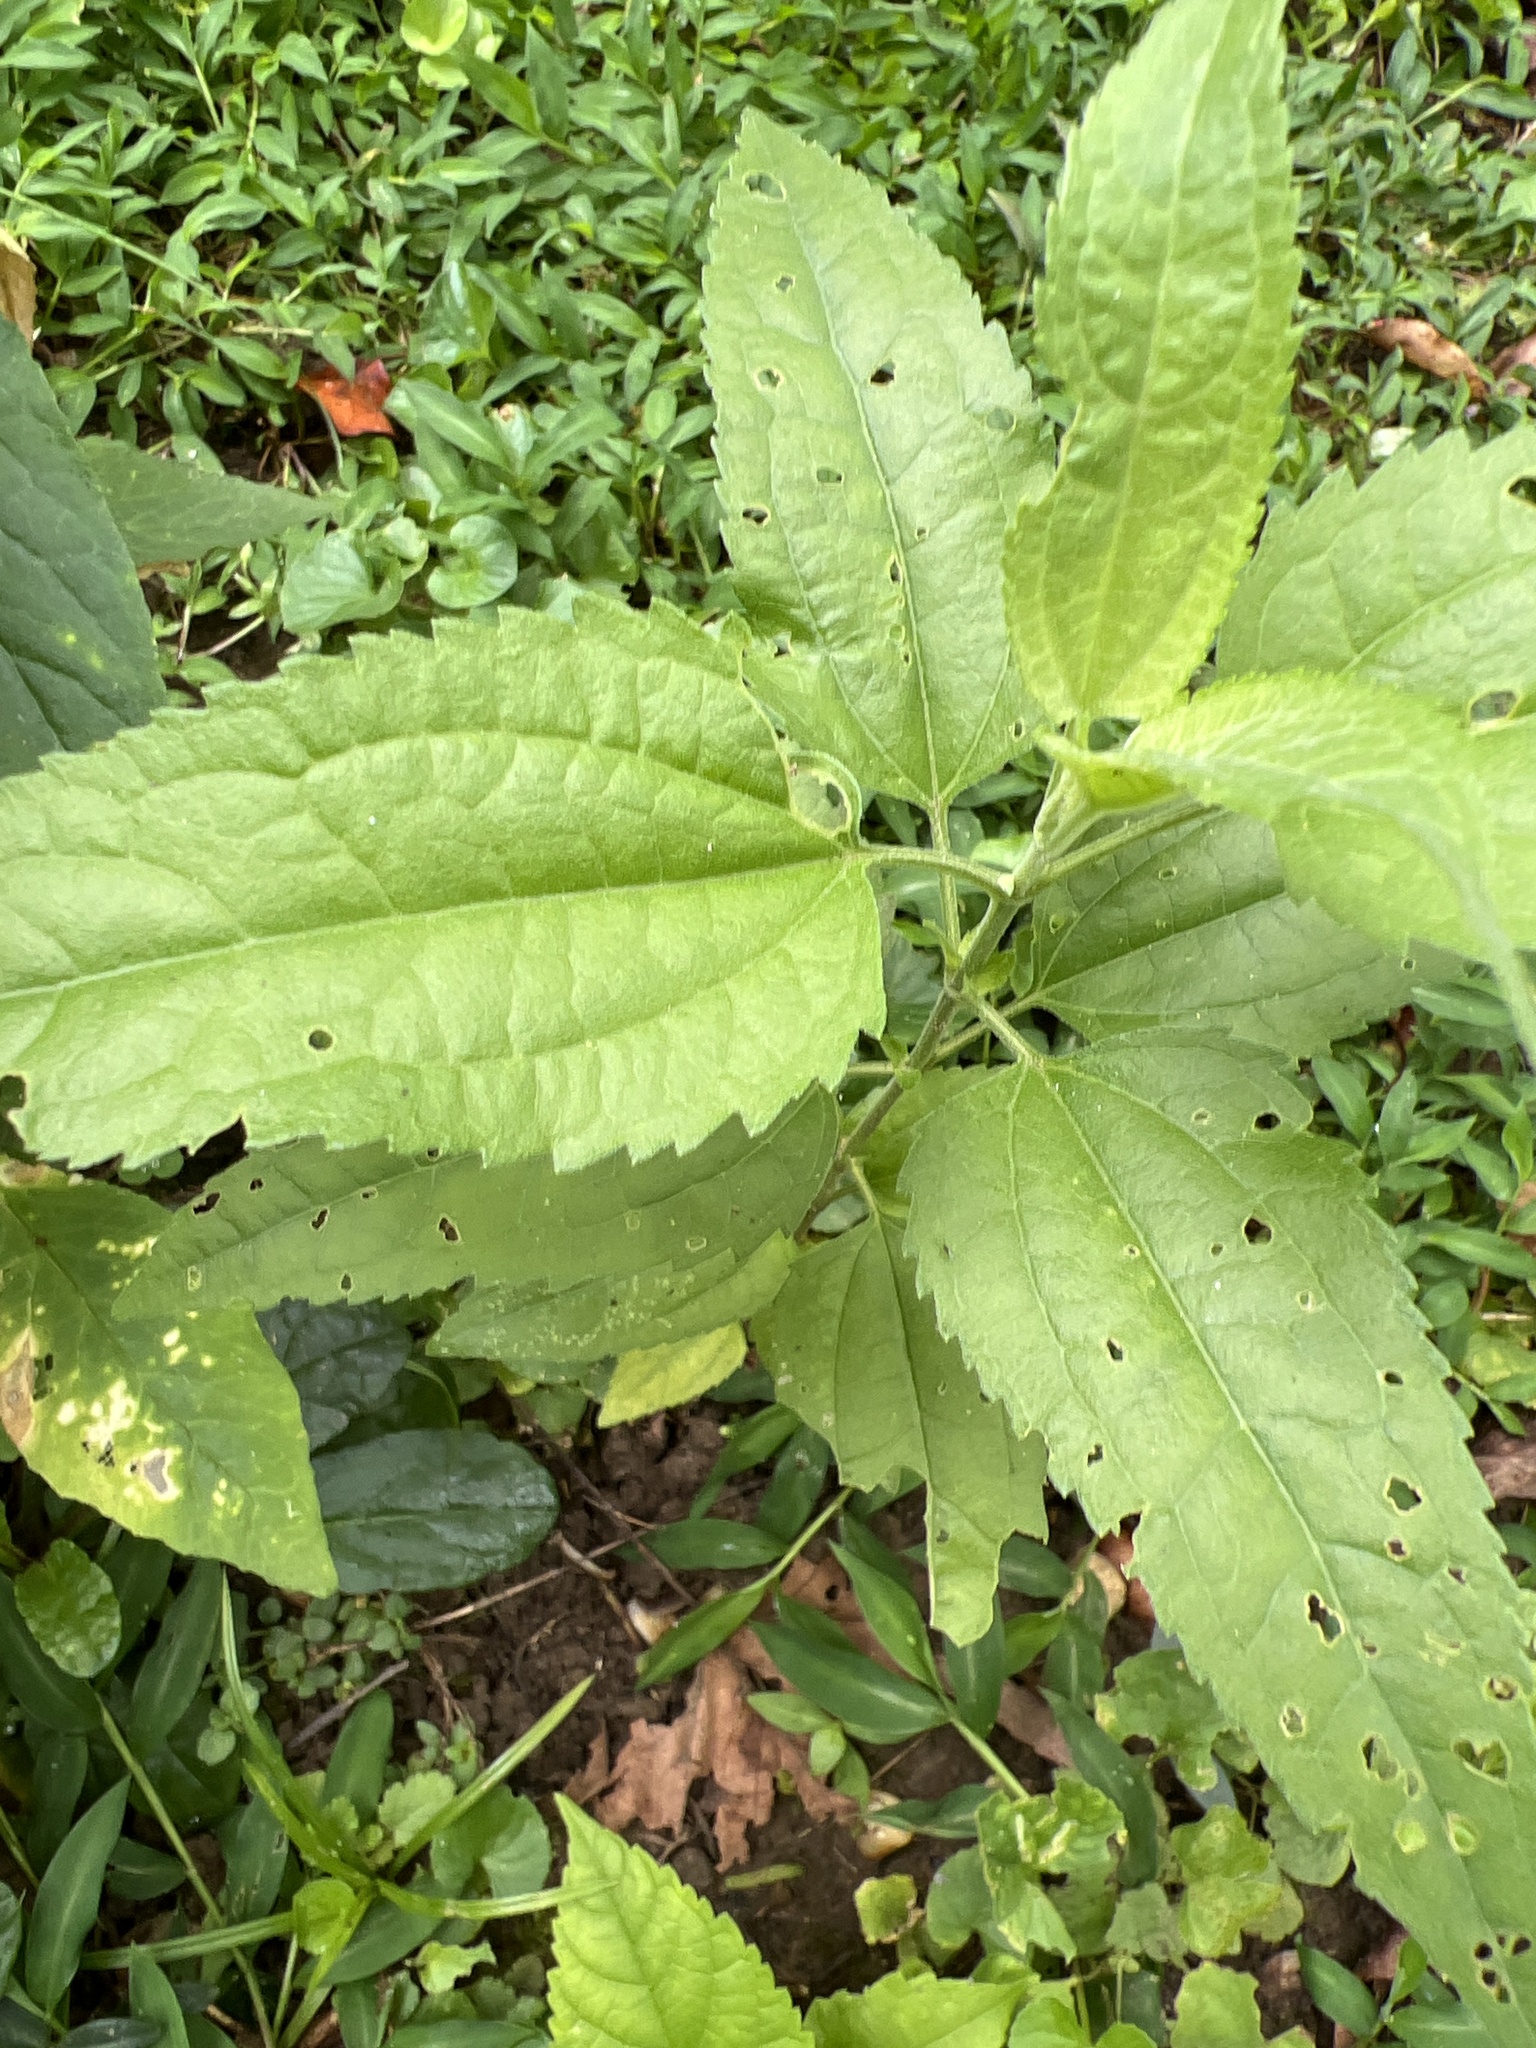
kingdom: Plantae
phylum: Tracheophyta
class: Magnoliopsida
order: Asterales
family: Asteraceae
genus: Eupatorium
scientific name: Eupatorium serotinum
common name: Late boneset
